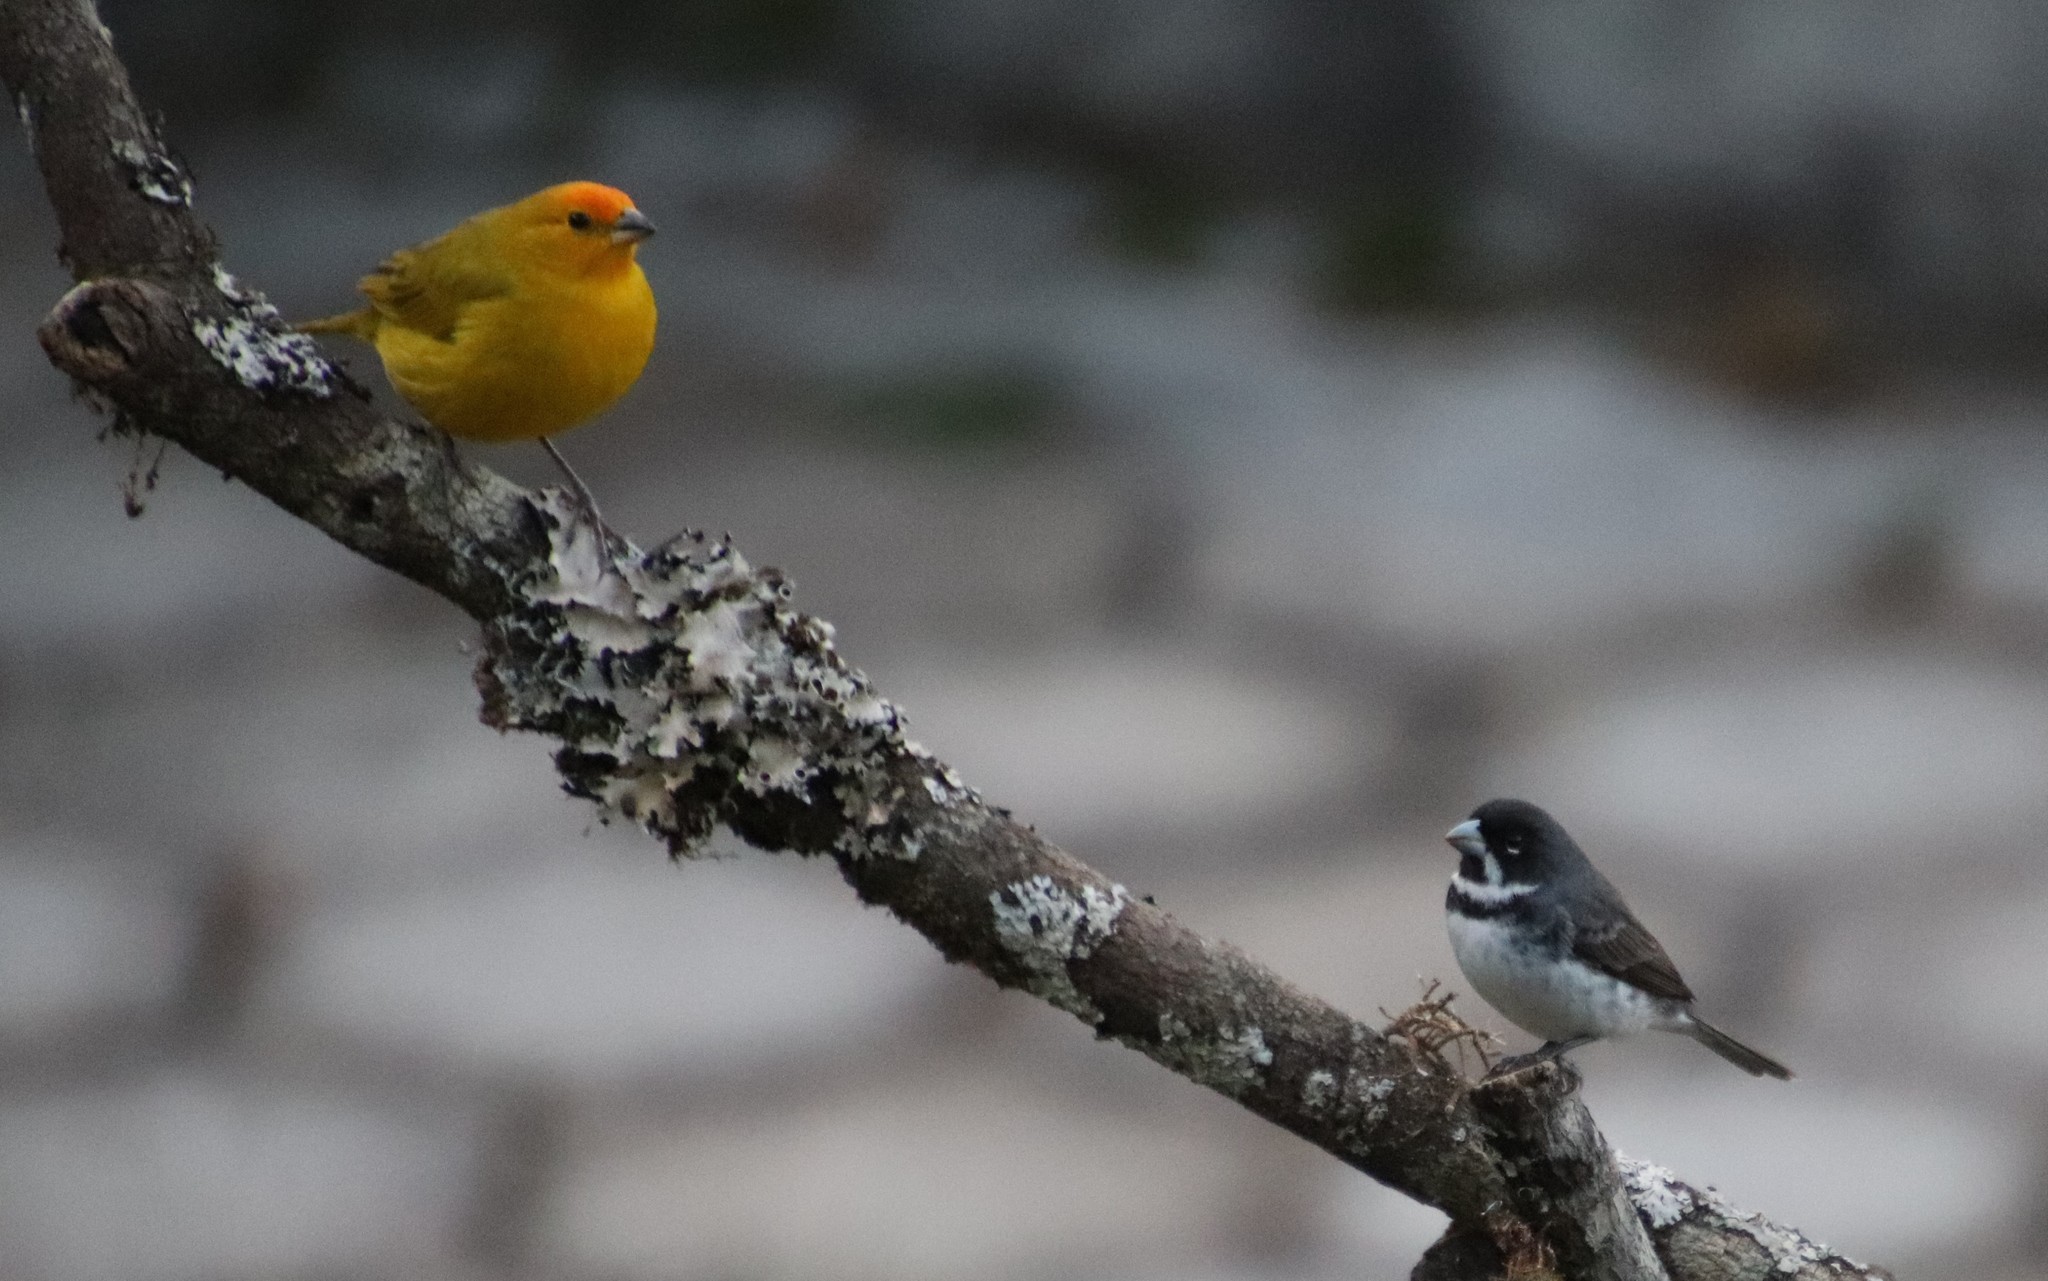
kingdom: Animalia
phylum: Chordata
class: Aves
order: Passeriformes
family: Thraupidae
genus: Sicalis
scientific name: Sicalis flaveola
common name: Saffron finch
